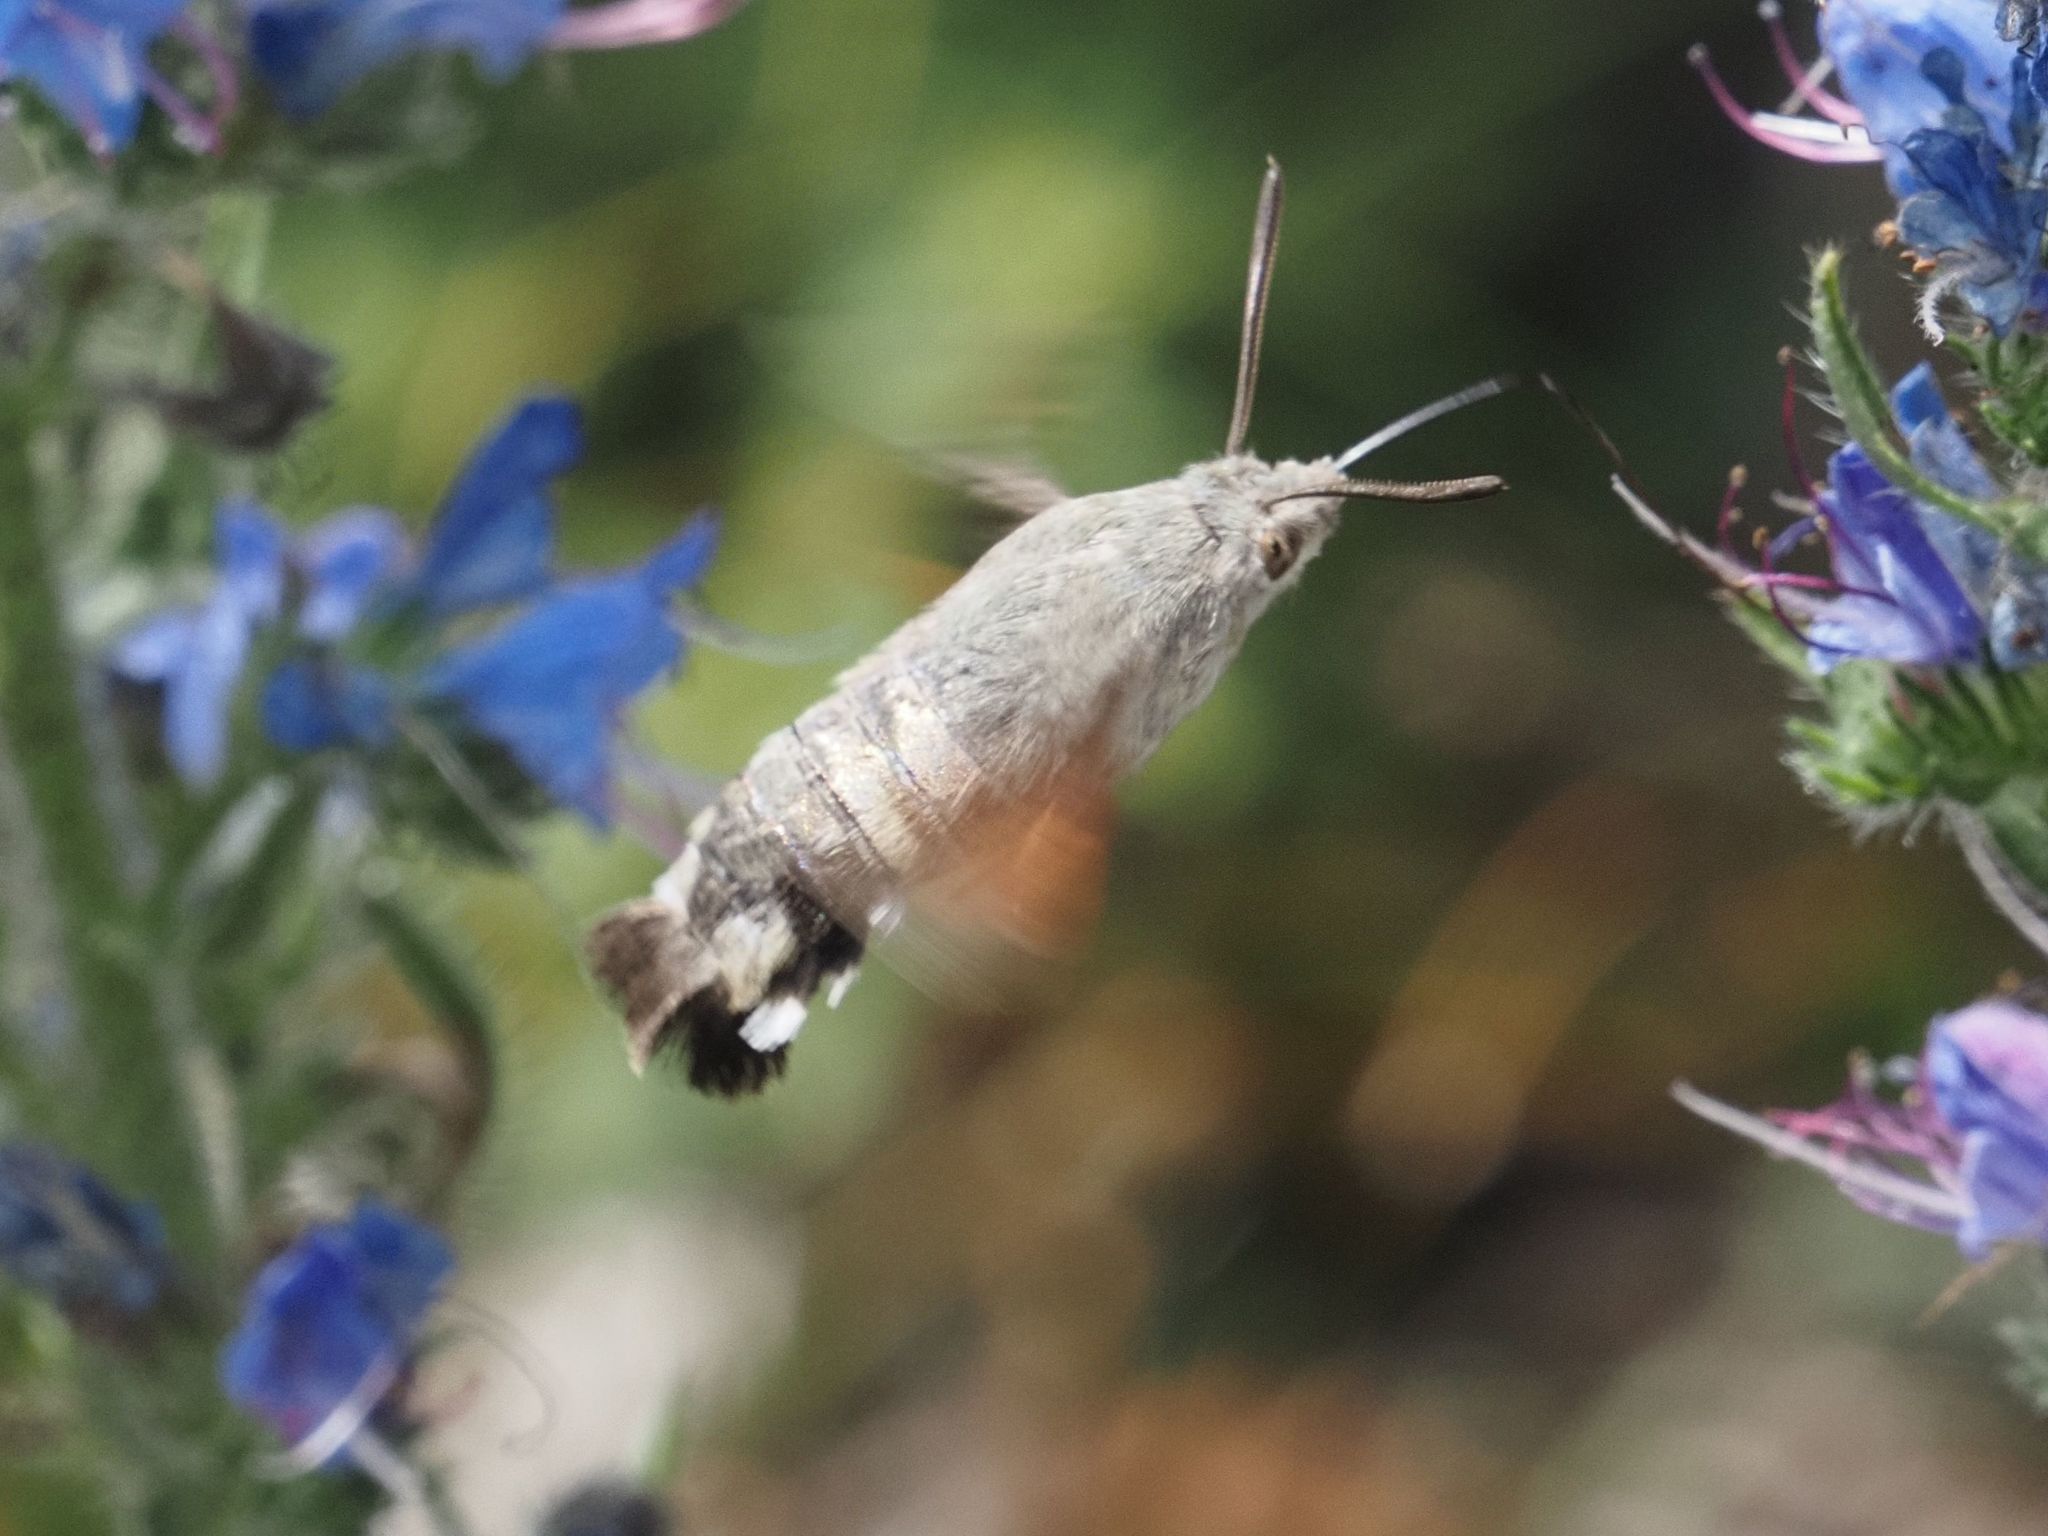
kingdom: Animalia
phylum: Arthropoda
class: Insecta
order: Lepidoptera
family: Sphingidae
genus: Macroglossum
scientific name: Macroglossum stellatarum
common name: Humming-bird hawk-moth
